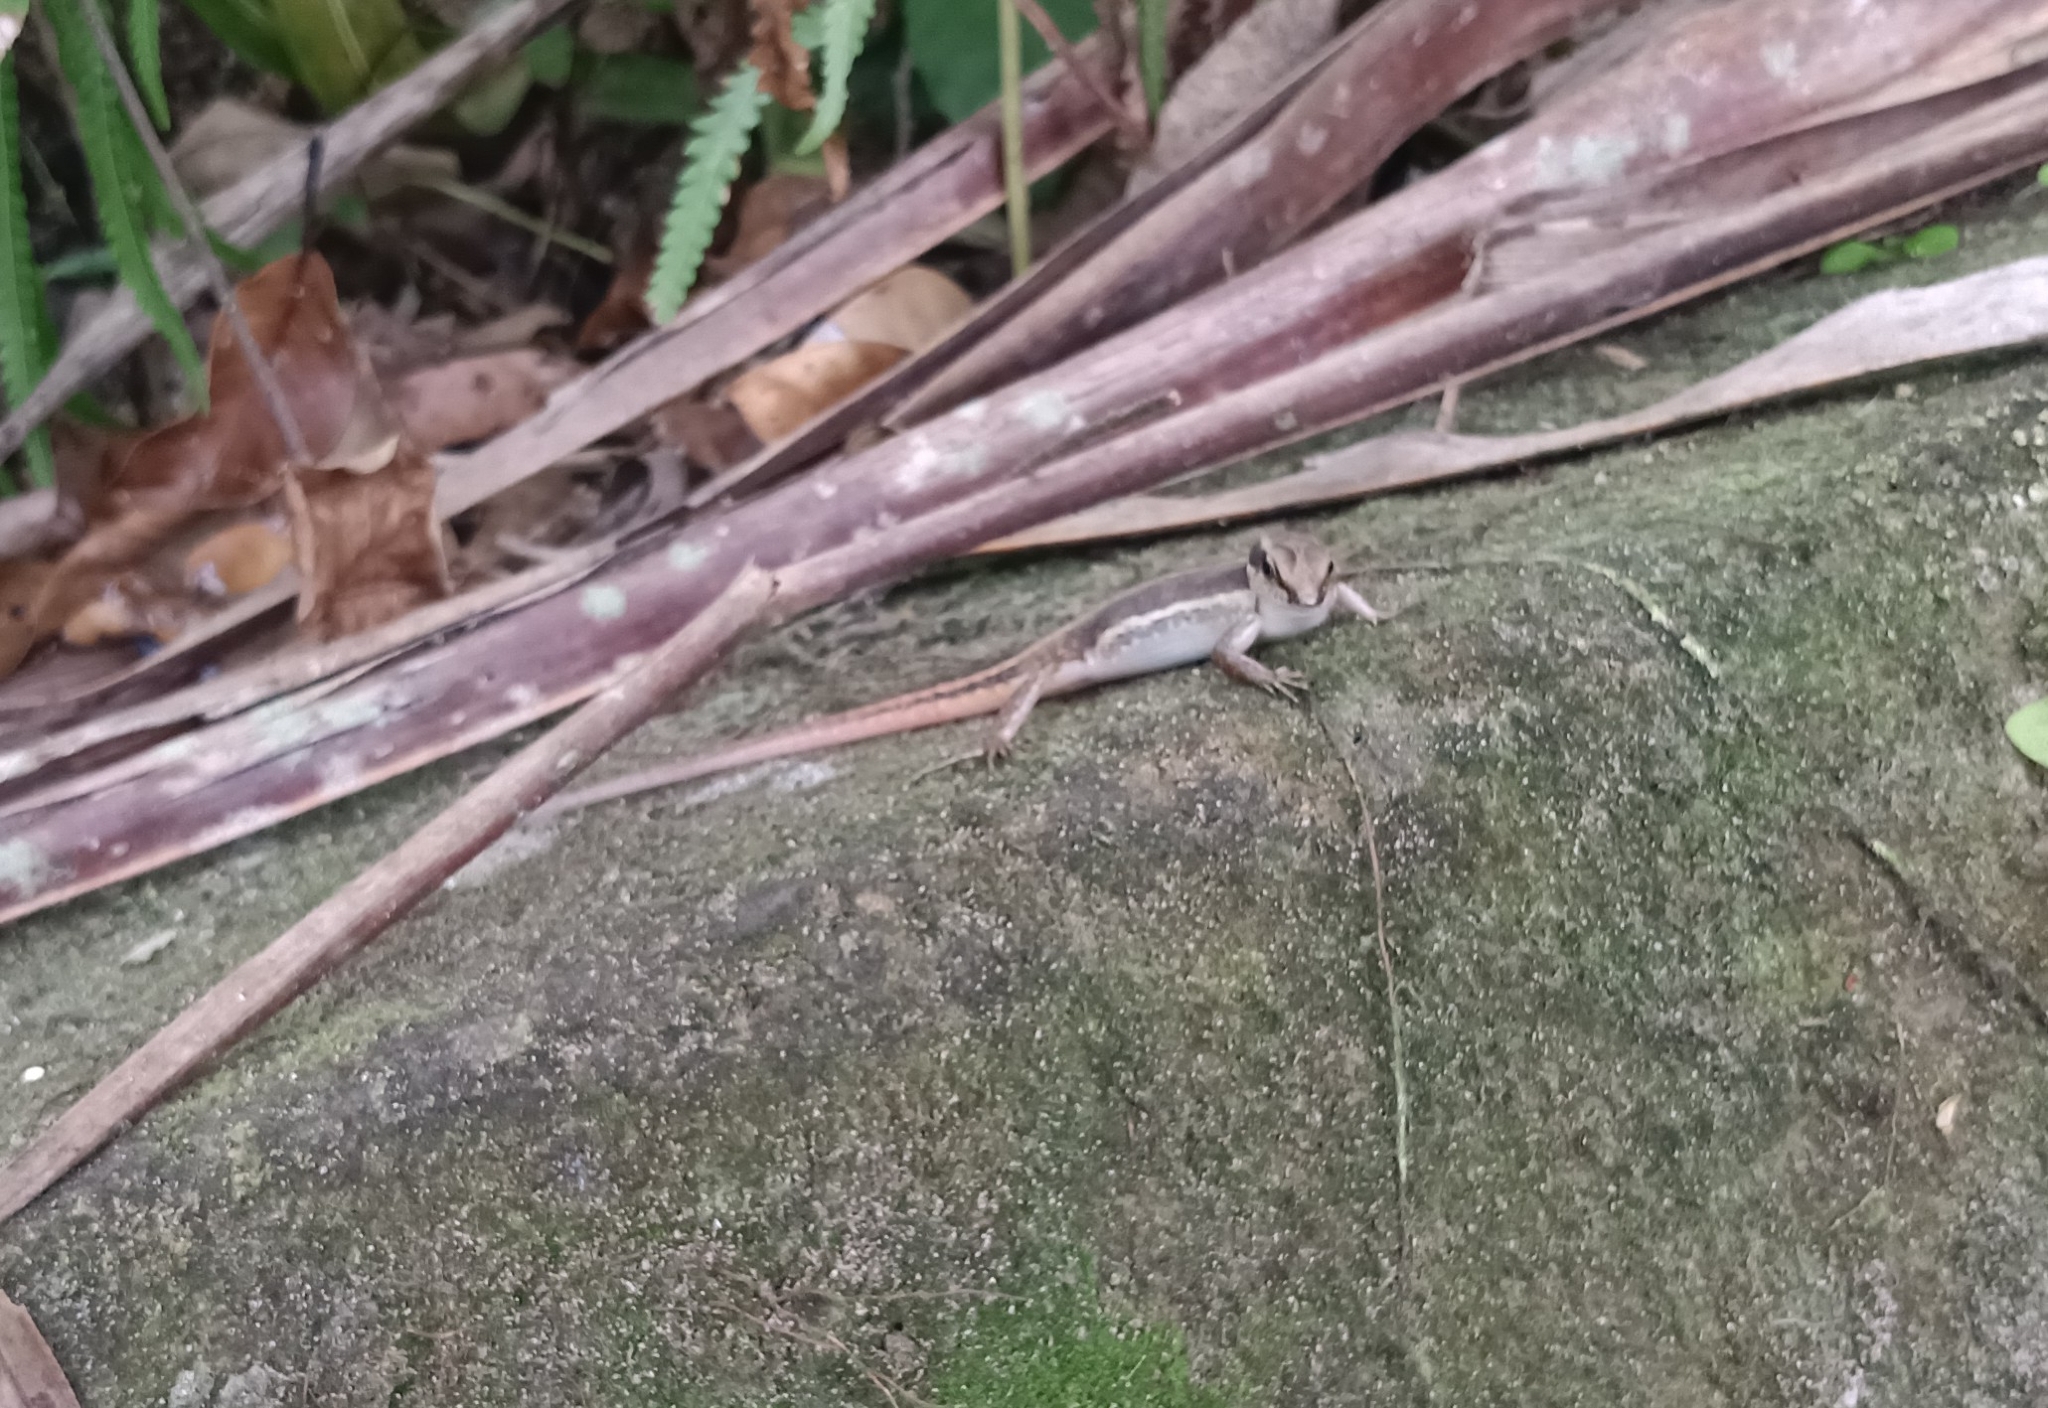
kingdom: Animalia
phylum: Chordata
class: Squamata
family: Scincidae
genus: Sphenomorphus
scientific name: Sphenomorphus dussumieri
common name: Dussumier's forest skink
